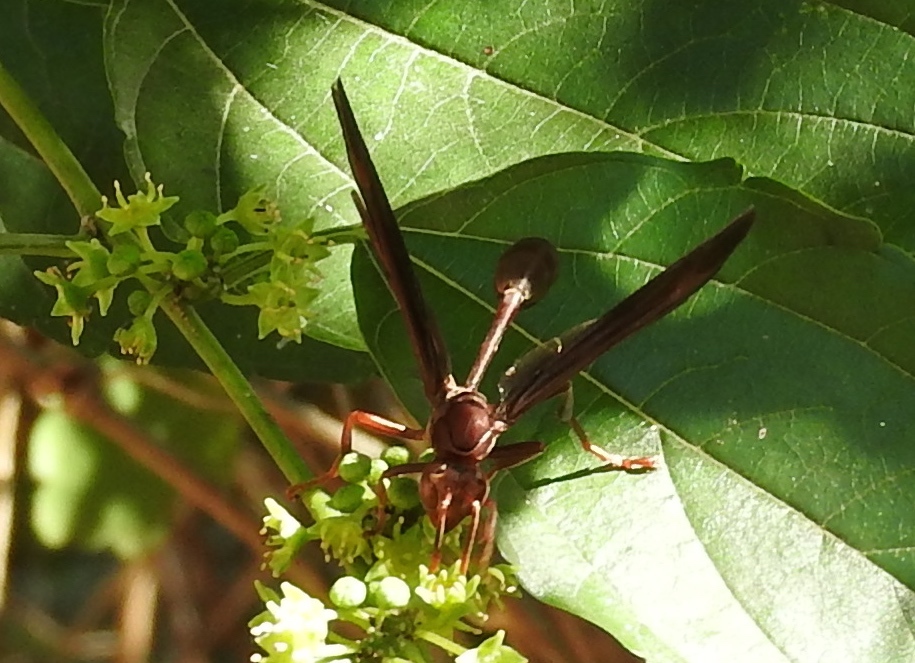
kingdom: Animalia
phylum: Arthropoda
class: Insecta
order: Hymenoptera
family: Vespidae
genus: Mischocyttarus
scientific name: Mischocyttarus melanarius
